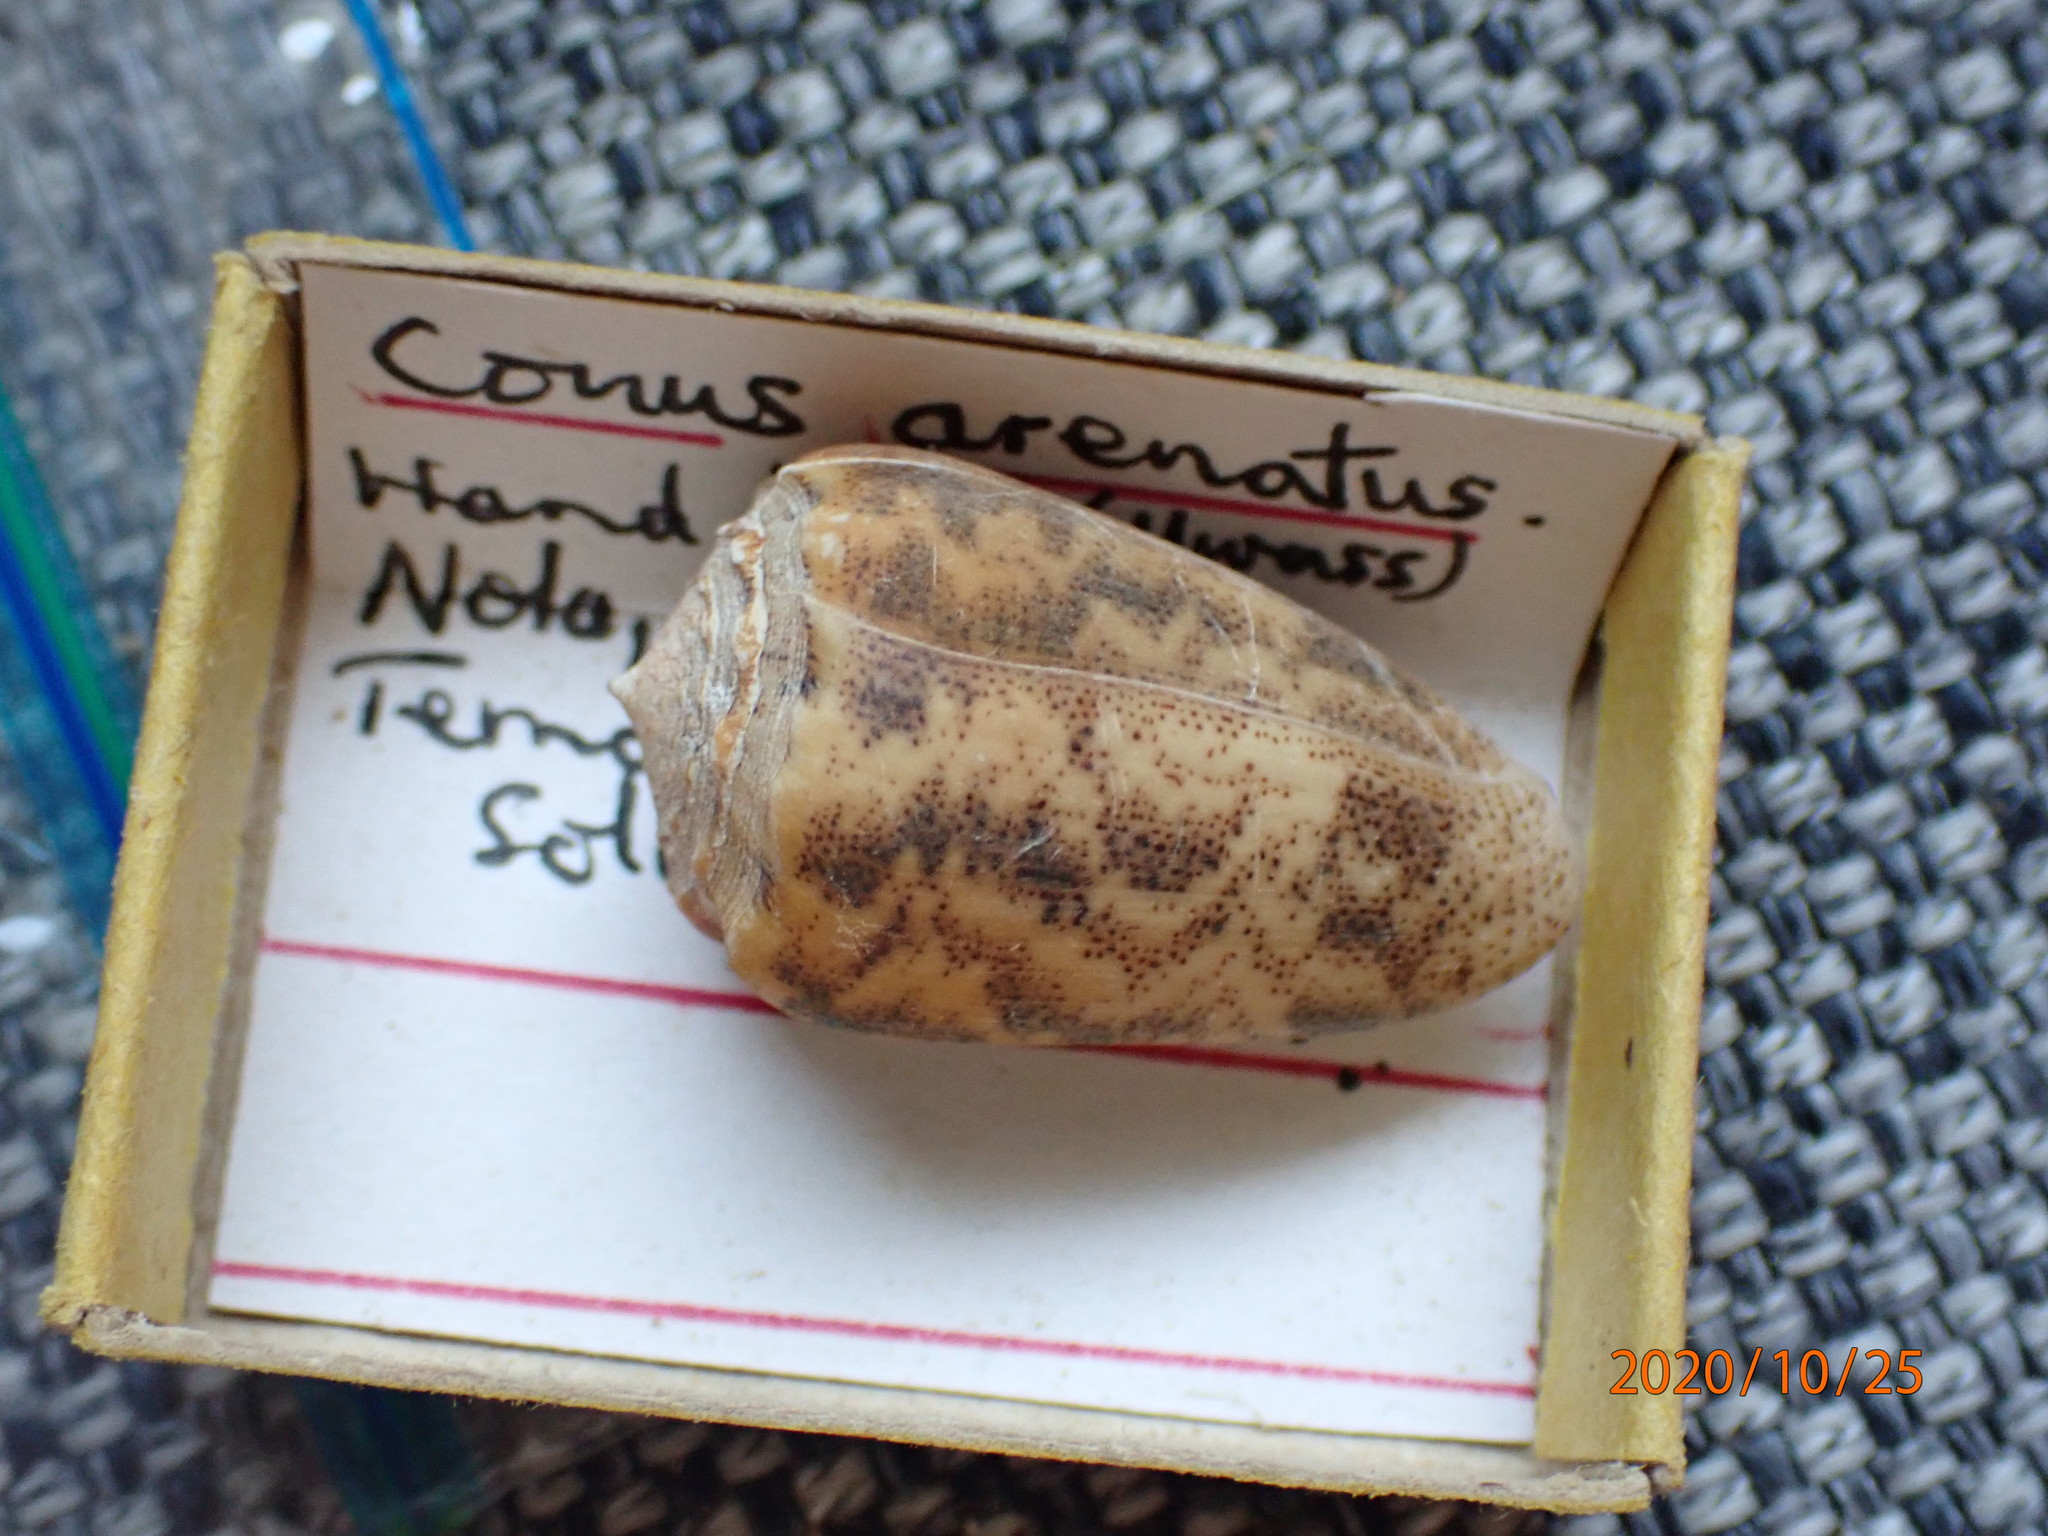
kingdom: Animalia
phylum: Mollusca
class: Gastropoda
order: Neogastropoda
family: Conidae
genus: Conus
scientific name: Conus arenatus
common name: Sand-dusted cone
